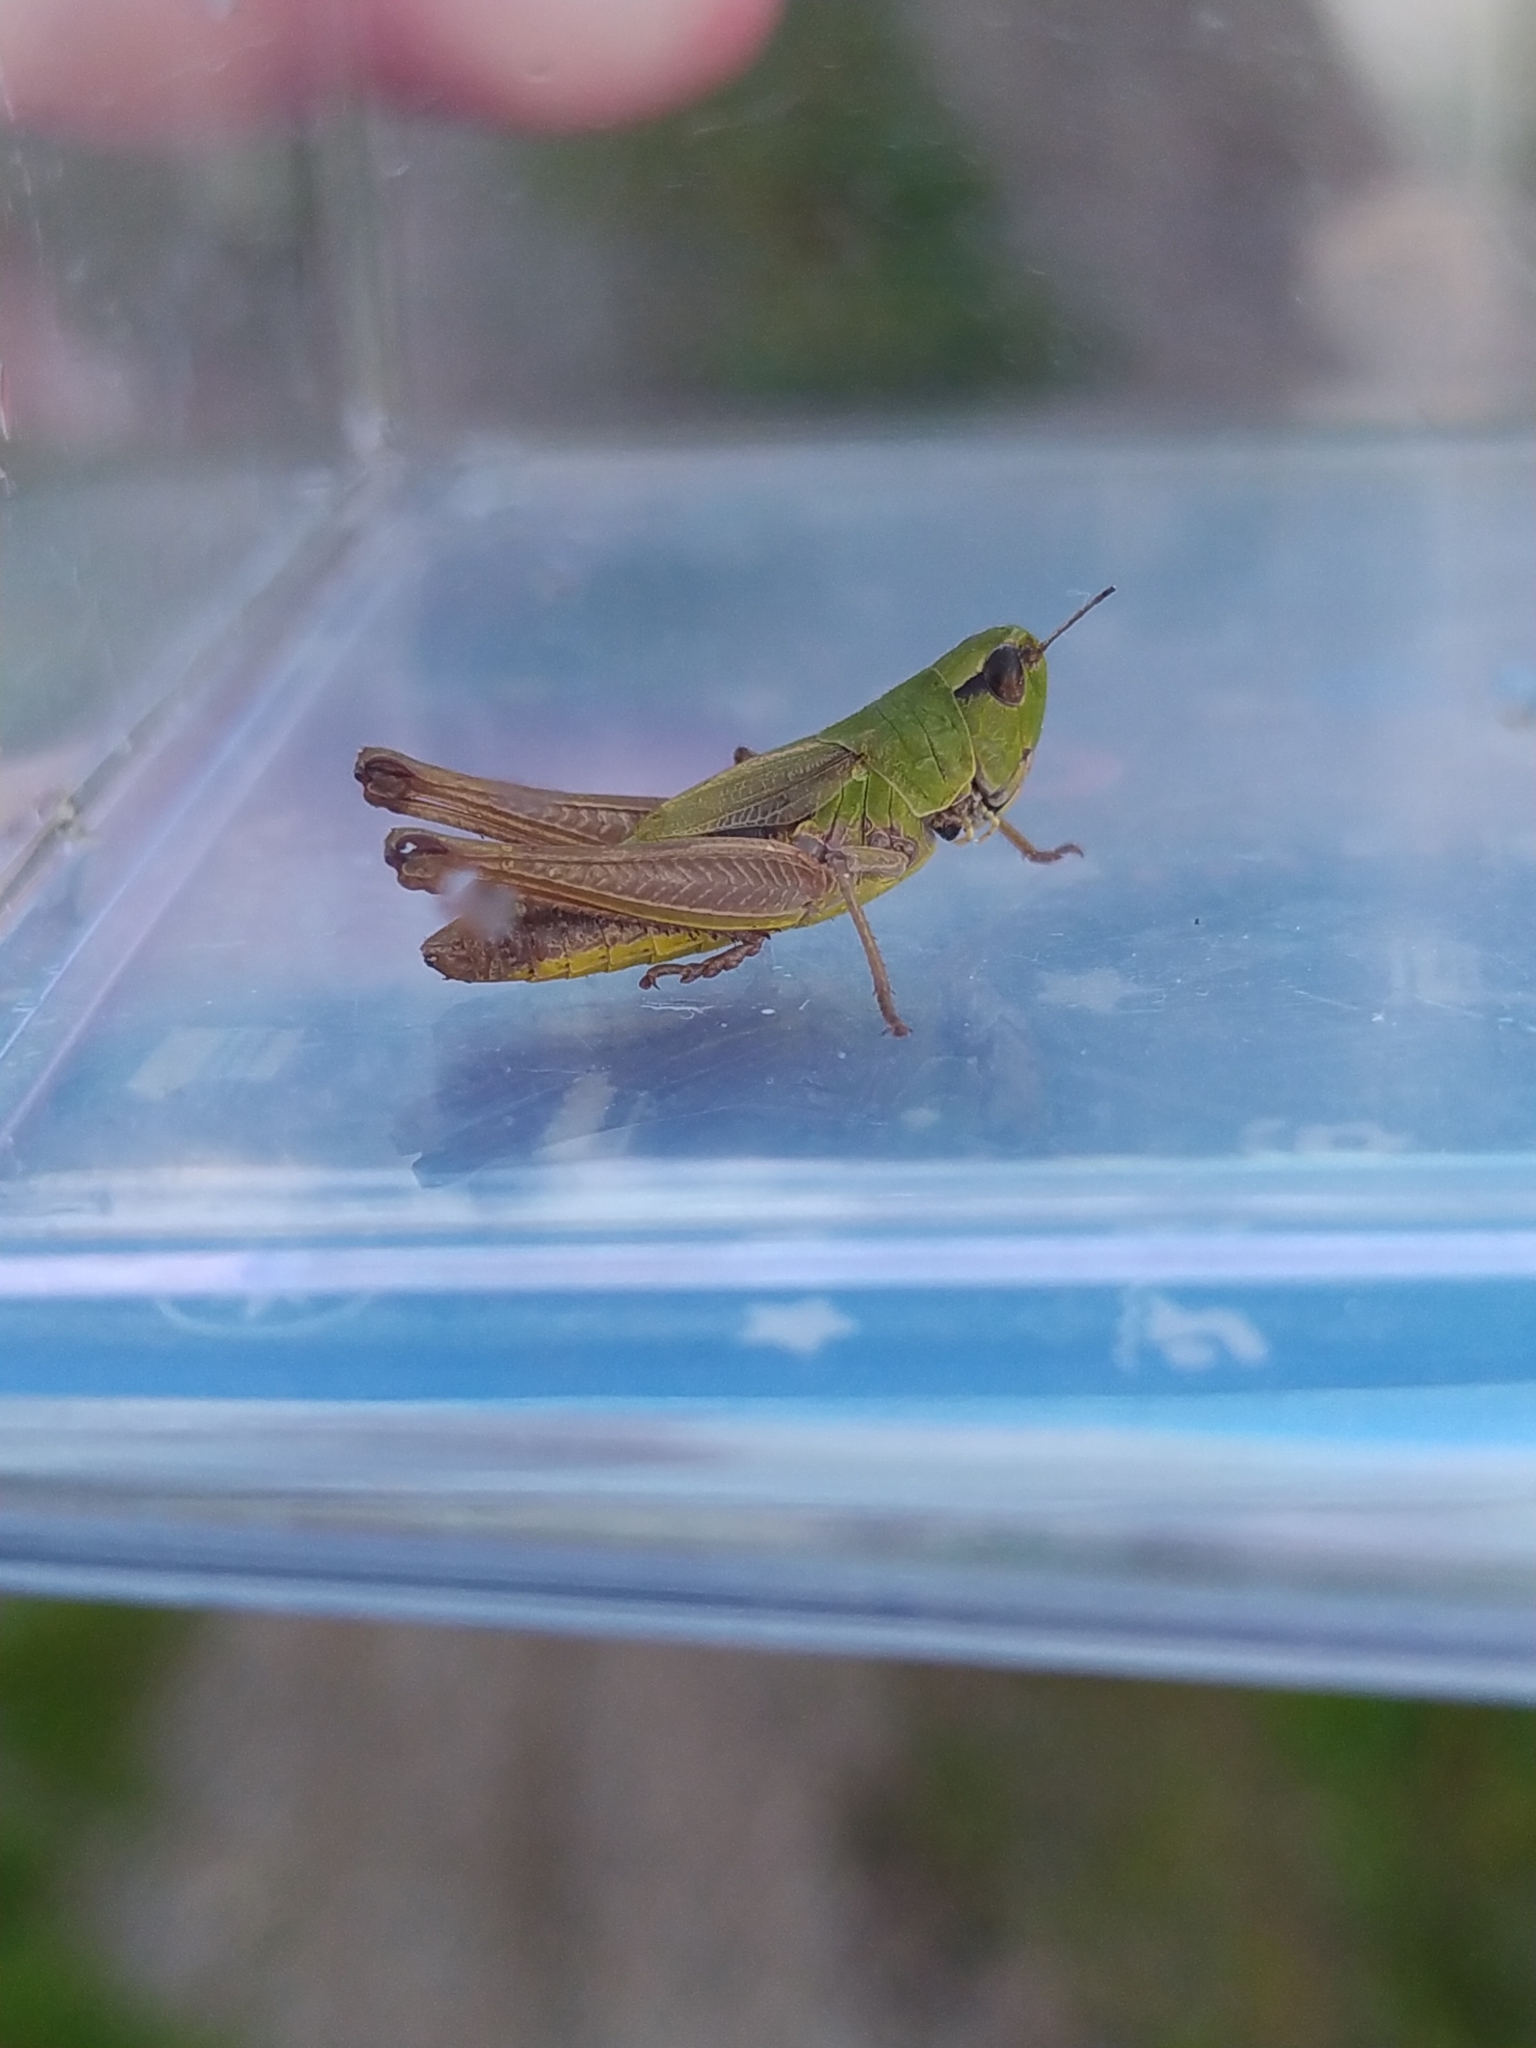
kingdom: Animalia
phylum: Arthropoda
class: Insecta
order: Orthoptera
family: Acrididae
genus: Pseudochorthippus
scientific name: Pseudochorthippus parallelus
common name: Meadow grasshopper
